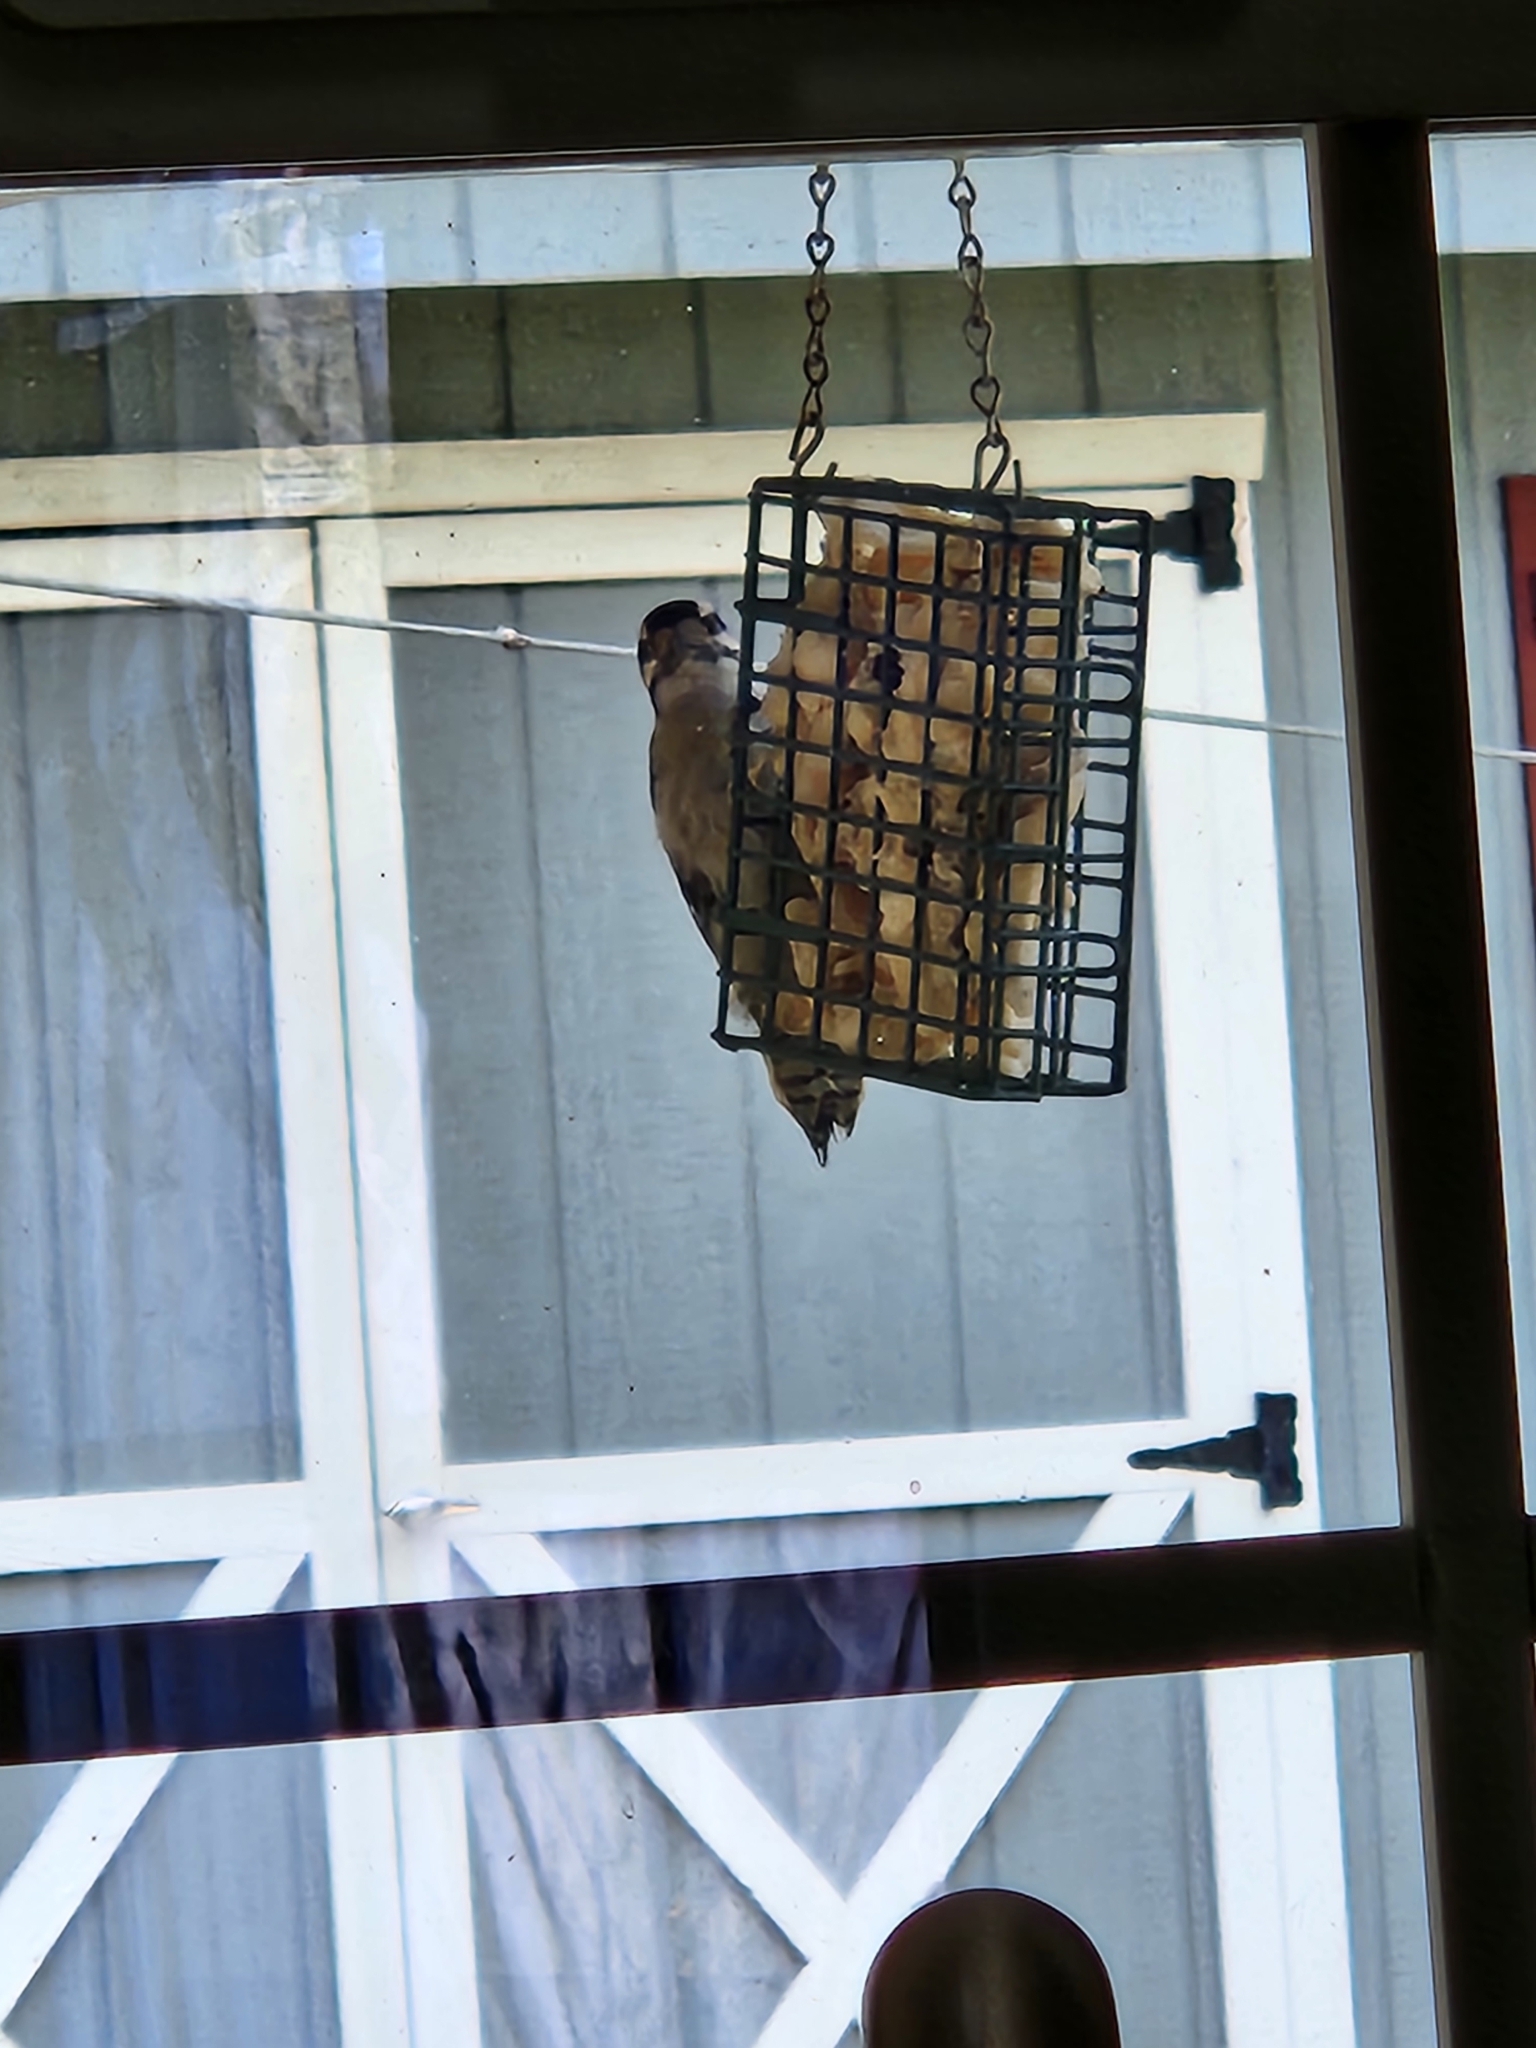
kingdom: Animalia
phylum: Chordata
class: Aves
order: Piciformes
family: Picidae
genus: Dryobates
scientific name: Dryobates pubescens
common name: Downy woodpecker
